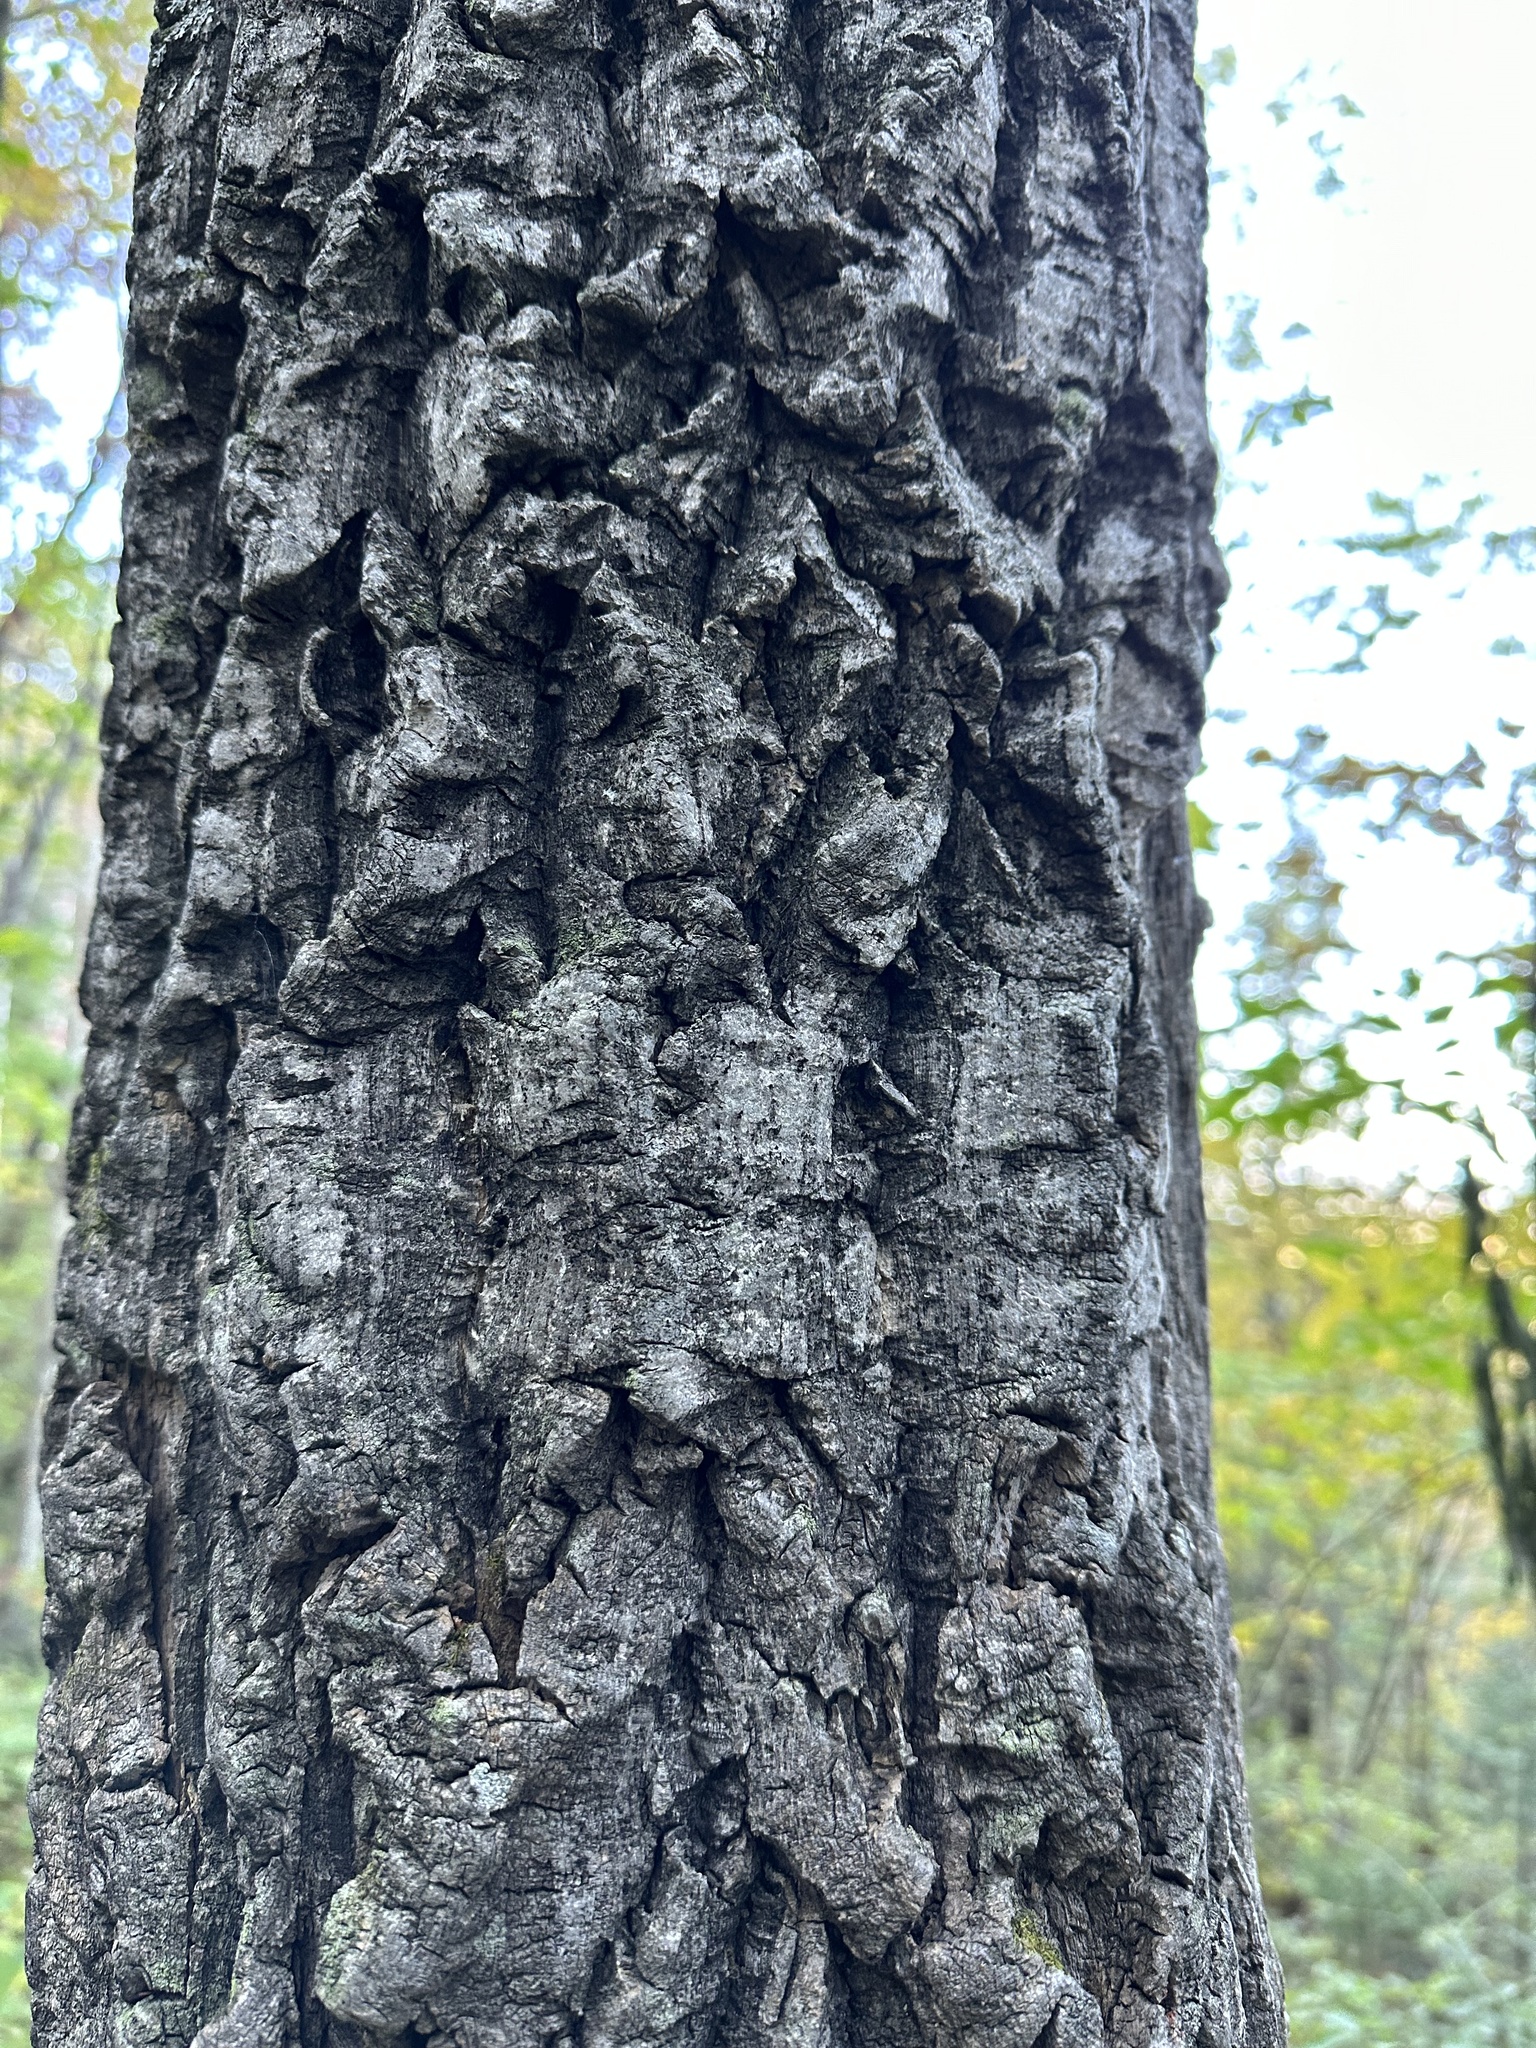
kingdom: Plantae
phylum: Tracheophyta
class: Magnoliopsida
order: Sapindales
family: Rutaceae
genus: Phellodendron
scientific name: Phellodendron amurense
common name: Amur corktree
